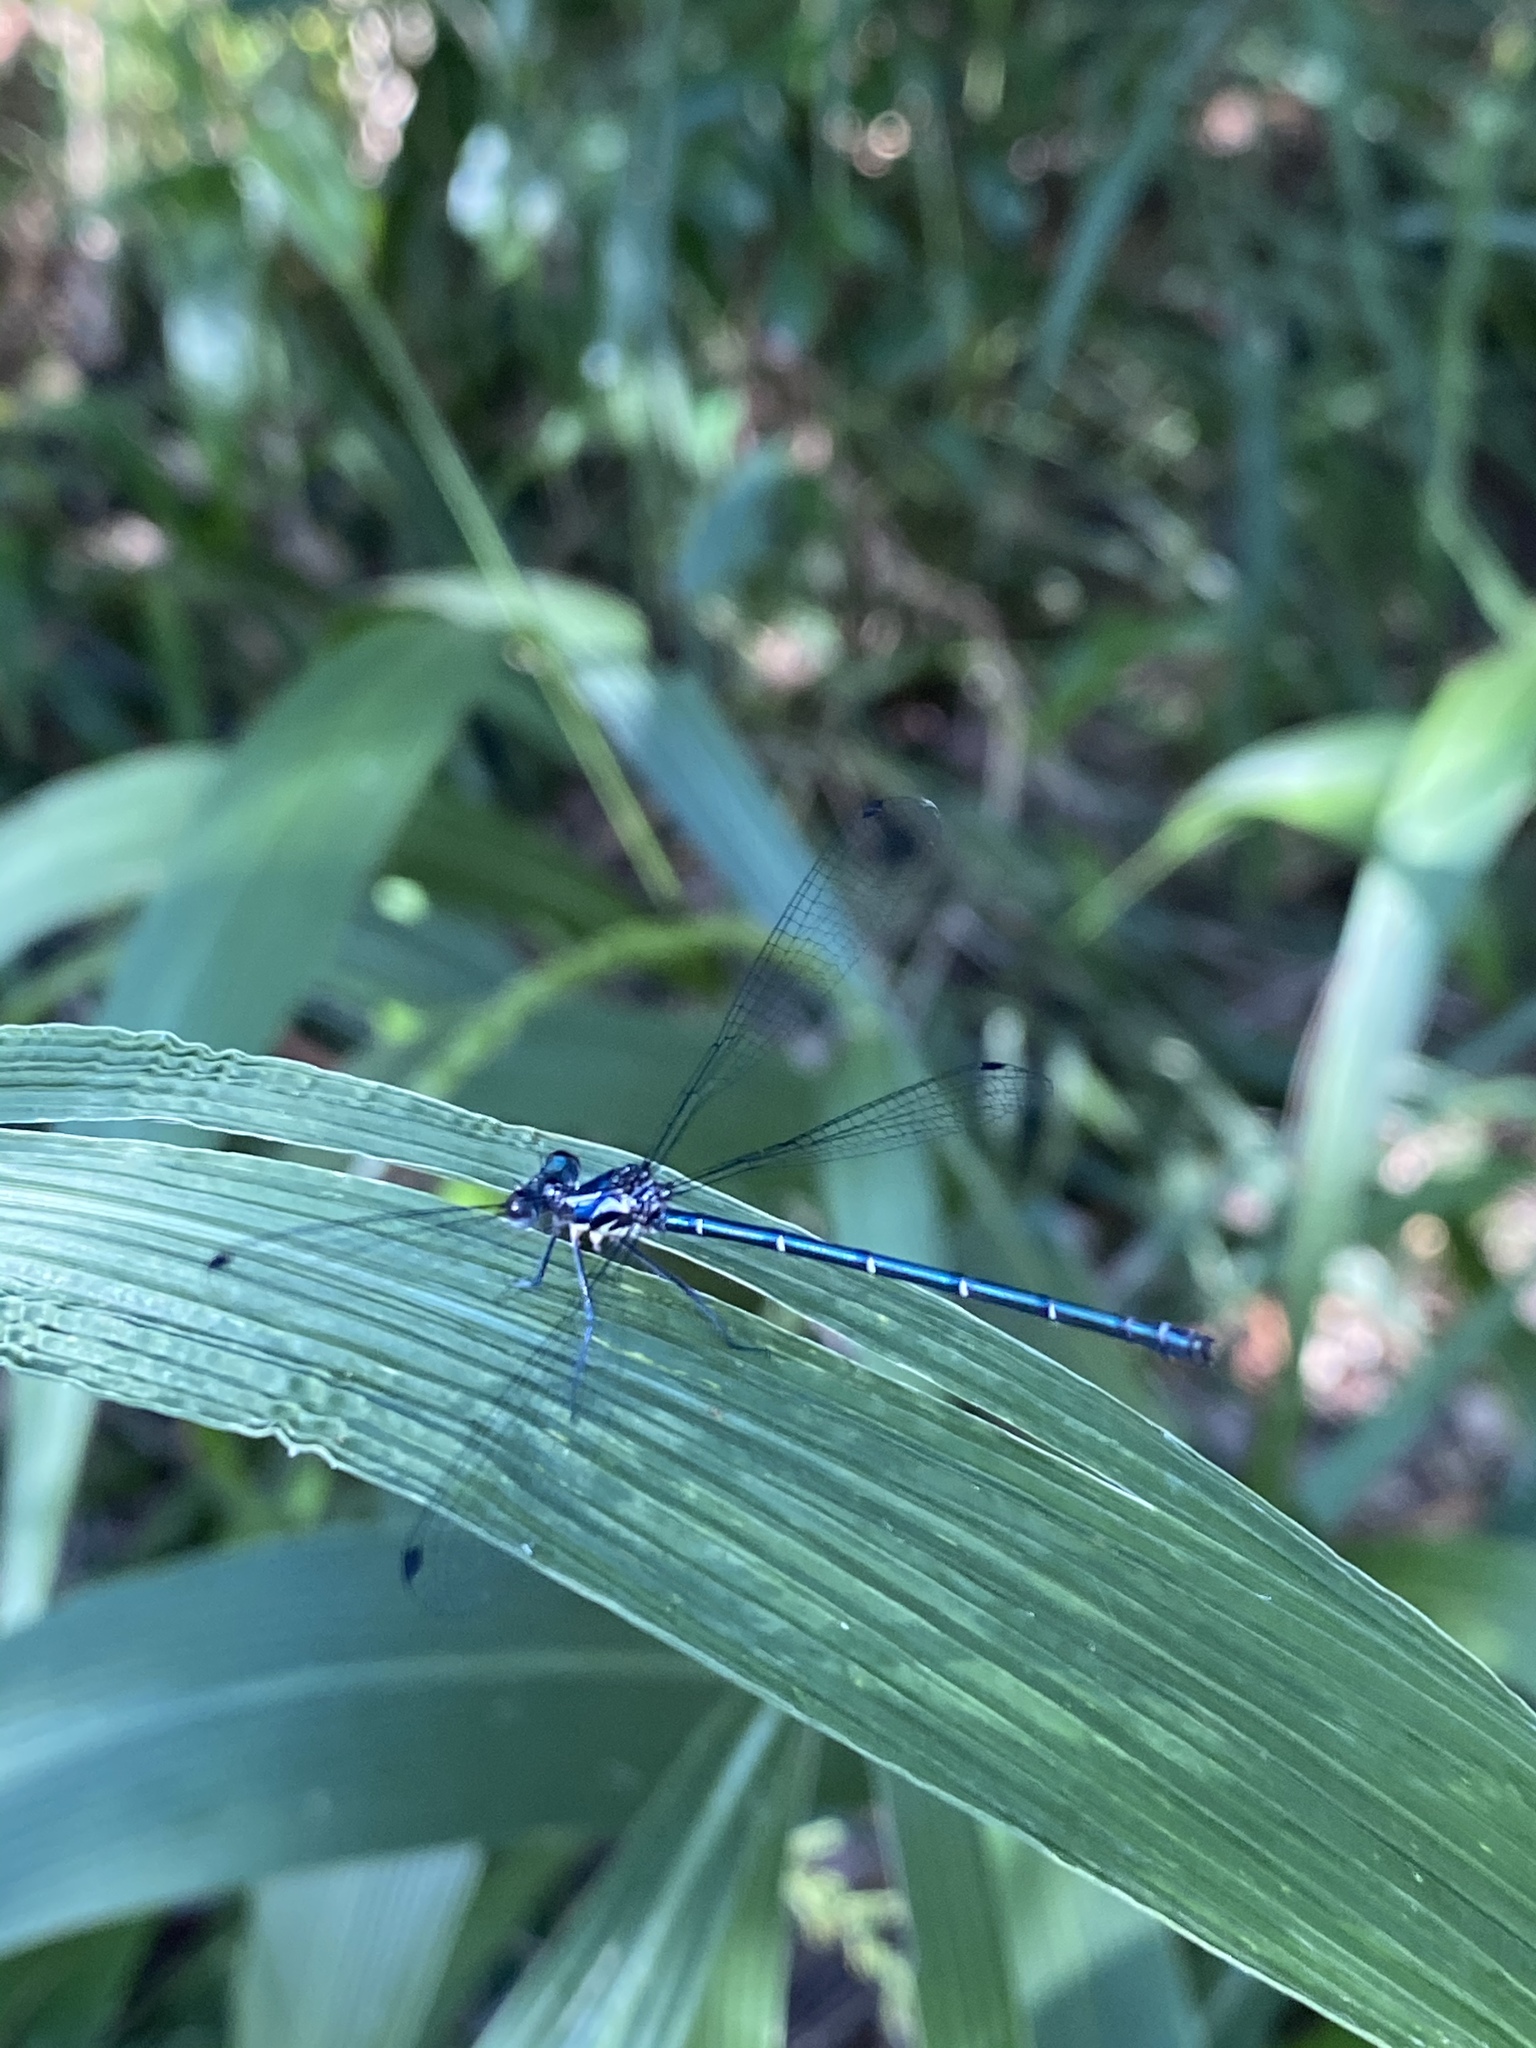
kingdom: Animalia
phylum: Arthropoda
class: Insecta
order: Odonata
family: Argiolestidae
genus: Austroargiolestes
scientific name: Austroargiolestes icteromelas
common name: Common flatwing
